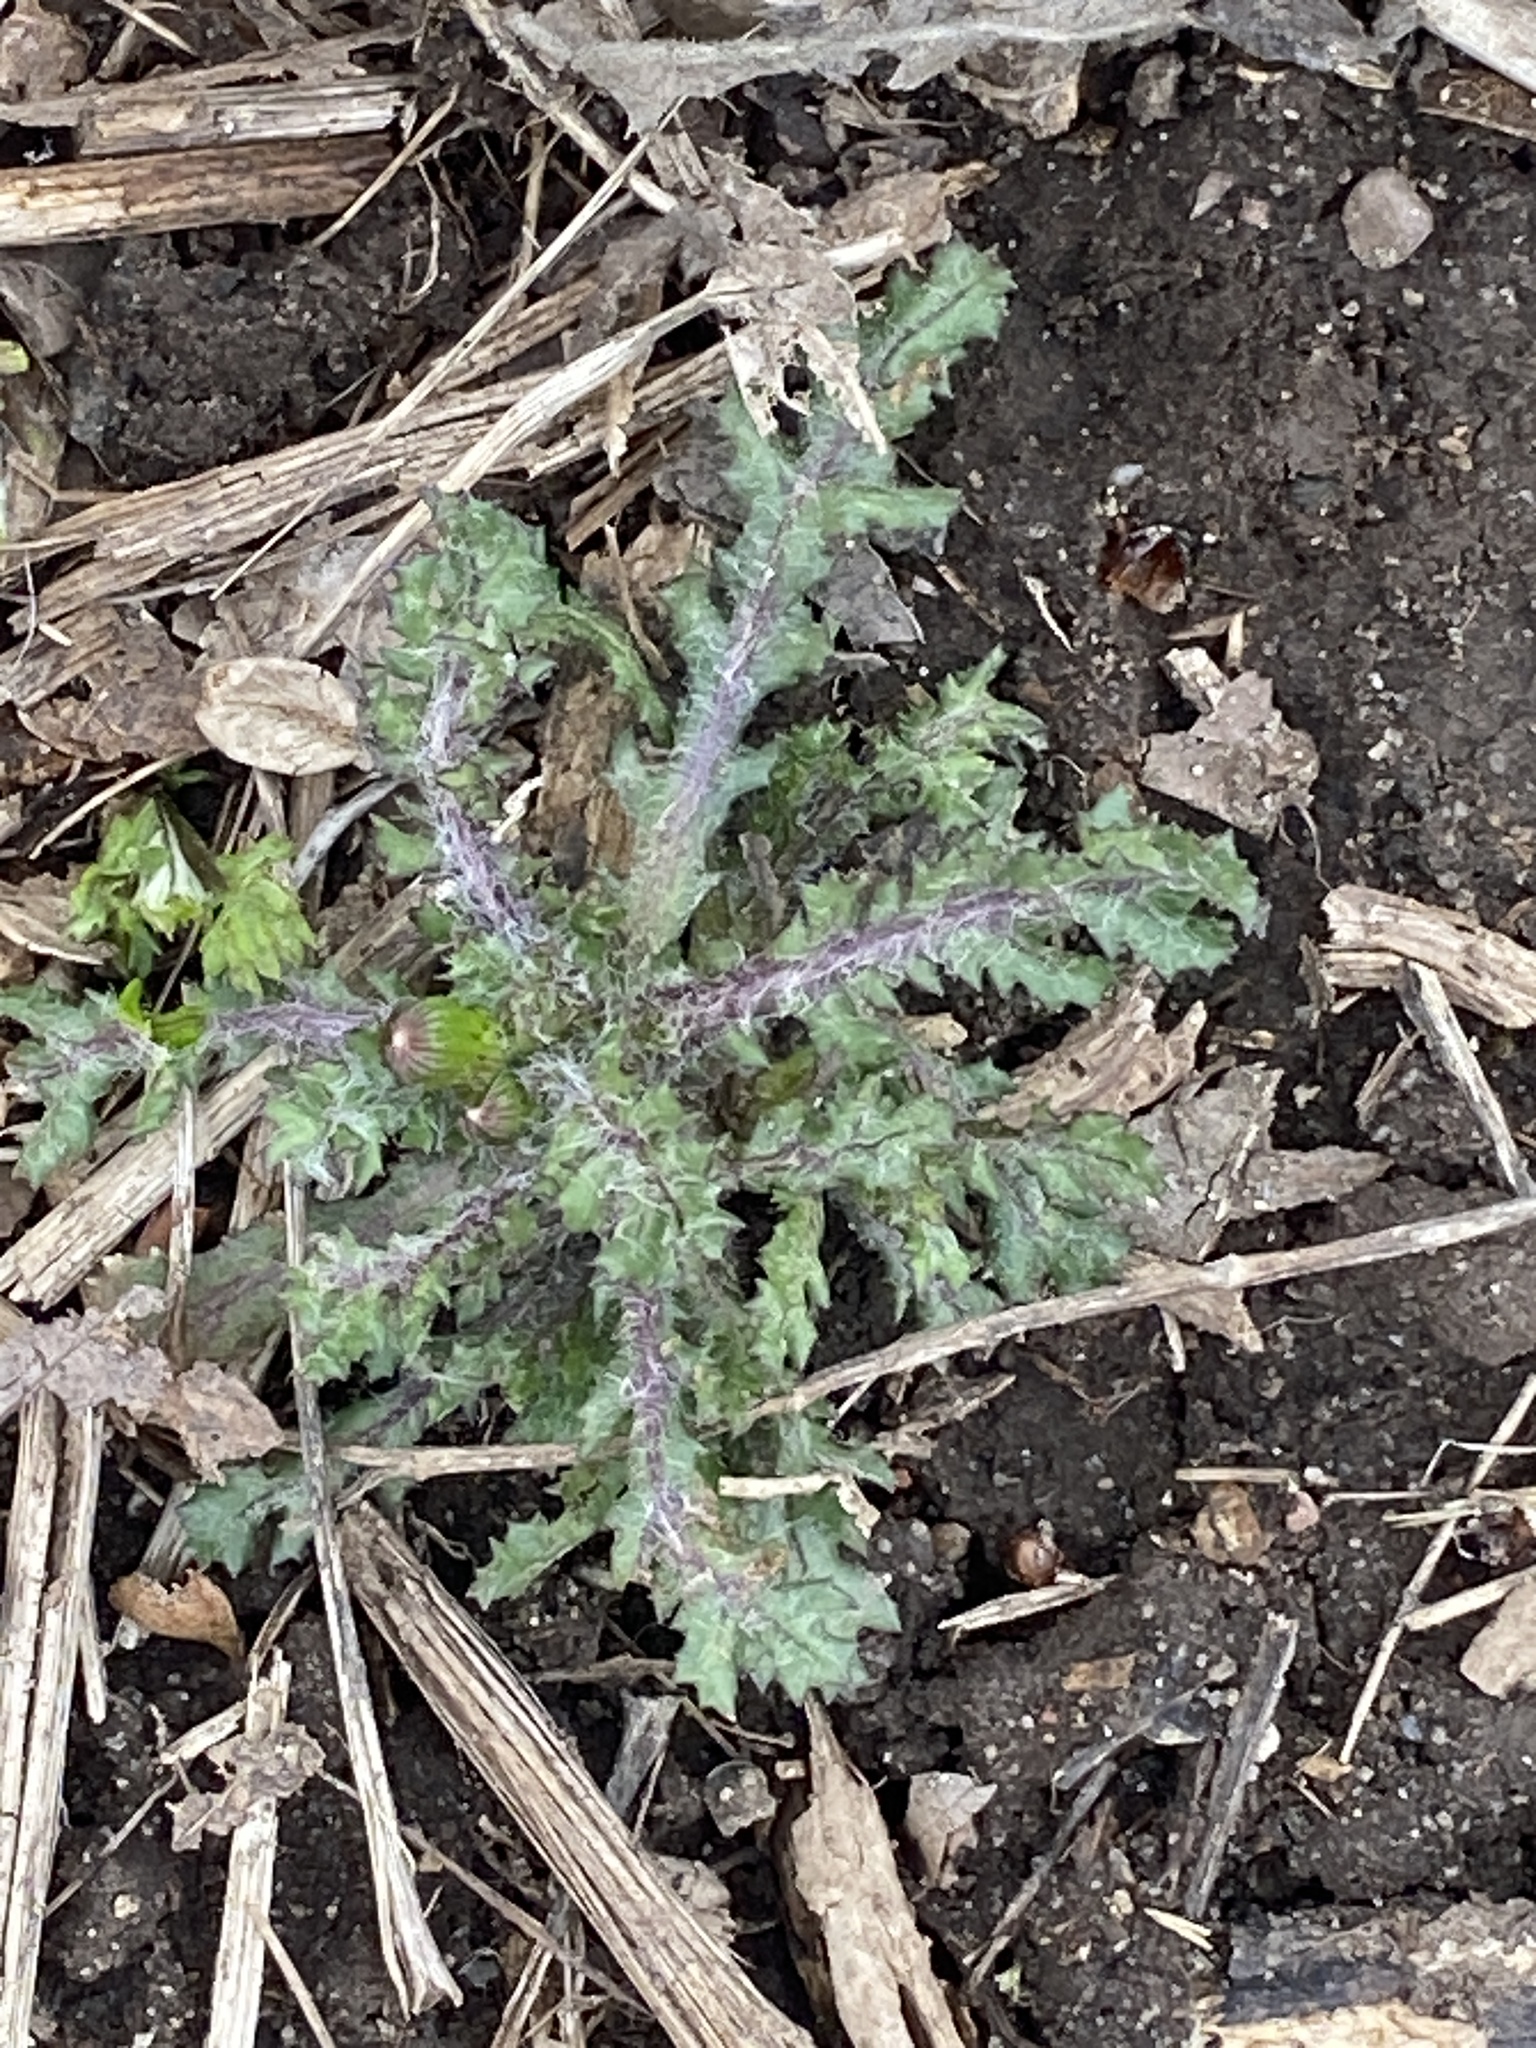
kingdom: Plantae
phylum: Tracheophyta
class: Magnoliopsida
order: Asterales
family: Asteraceae
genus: Senecio
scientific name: Senecio vulgaris
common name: Old-man-in-the-spring
